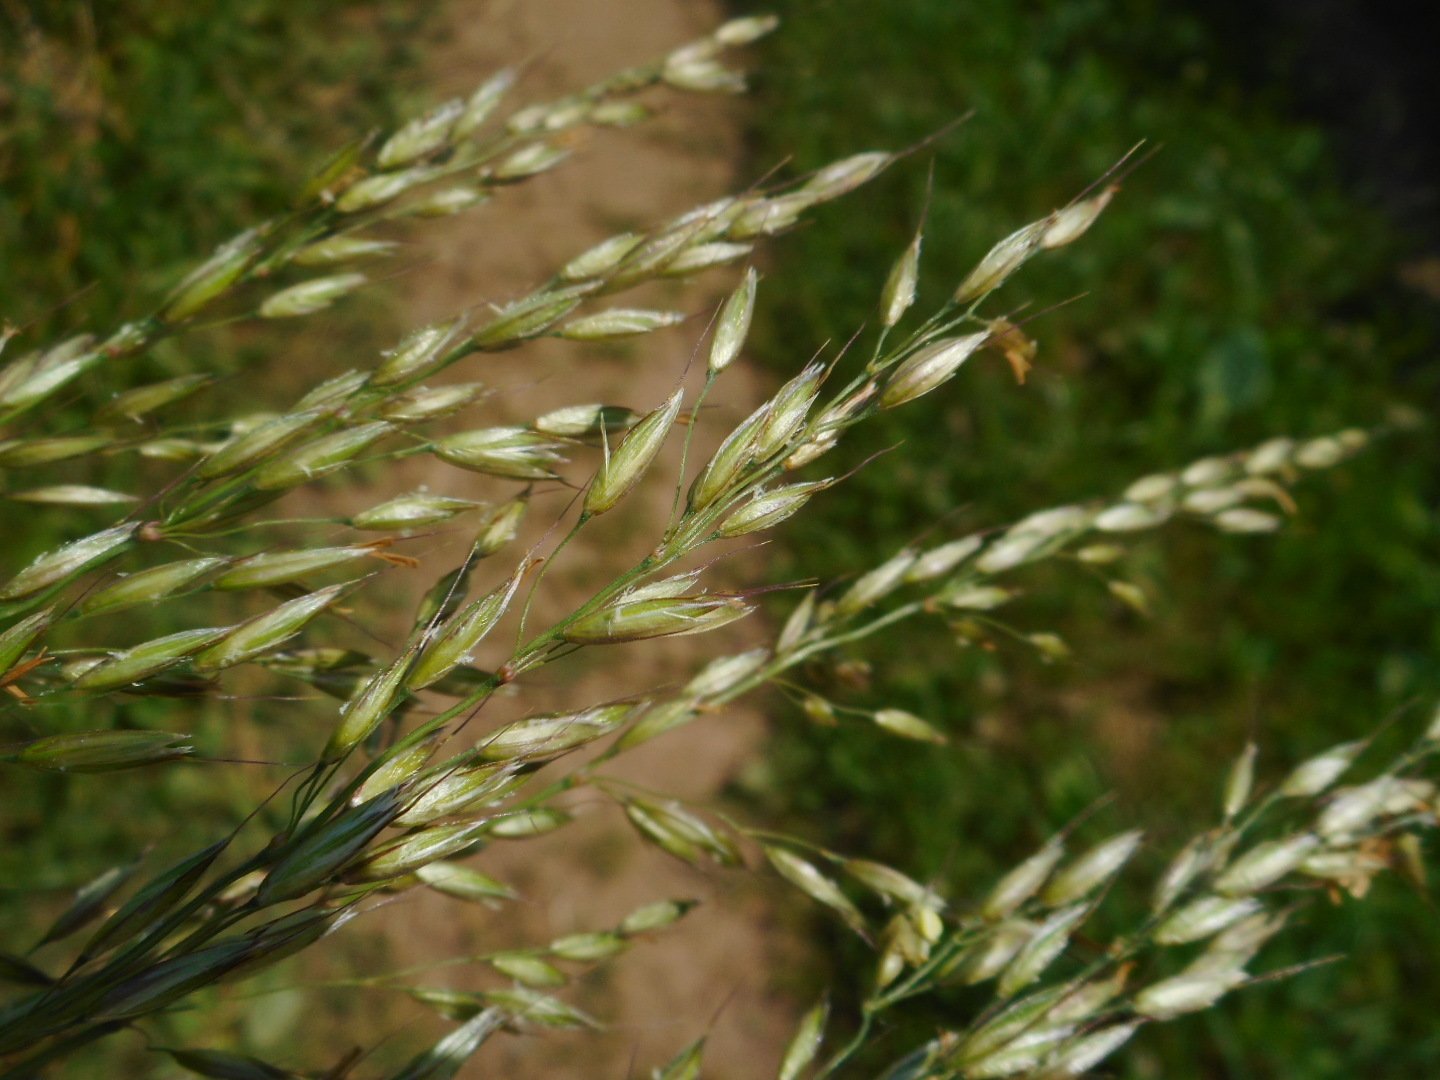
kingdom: Plantae
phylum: Tracheophyta
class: Liliopsida
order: Poales
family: Poaceae
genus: Arrhenatherum
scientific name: Arrhenatherum elatius
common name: Tall oatgrass
